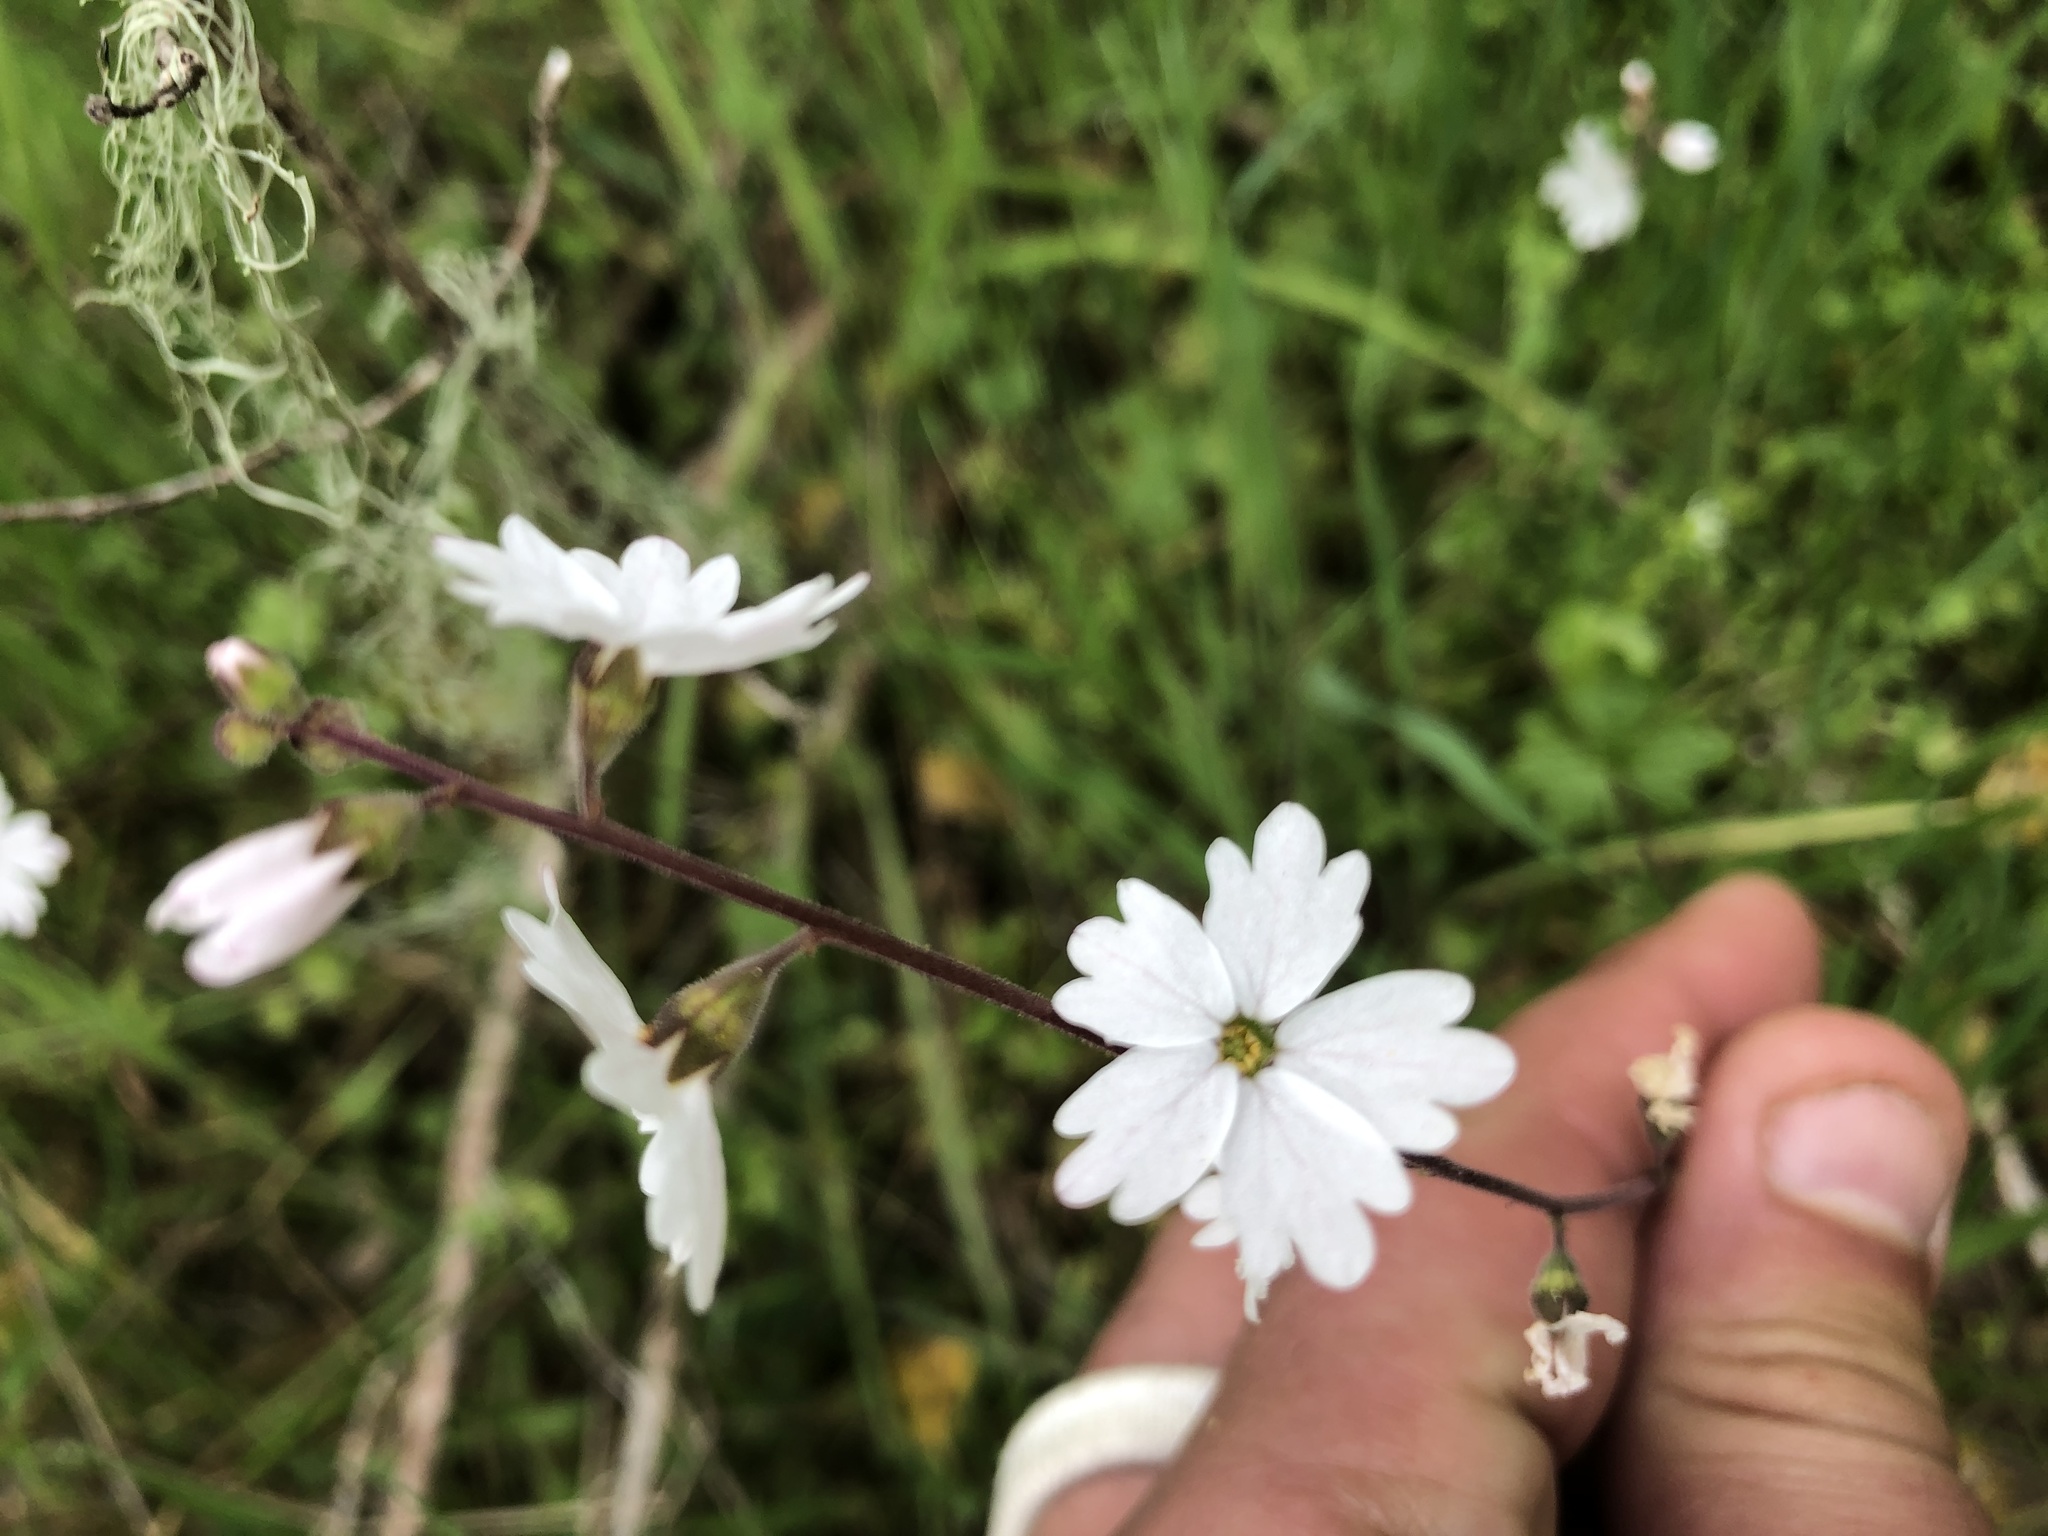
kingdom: Plantae
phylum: Tracheophyta
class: Magnoliopsida
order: Saxifragales
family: Saxifragaceae
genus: Lithophragma
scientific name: Lithophragma affine
